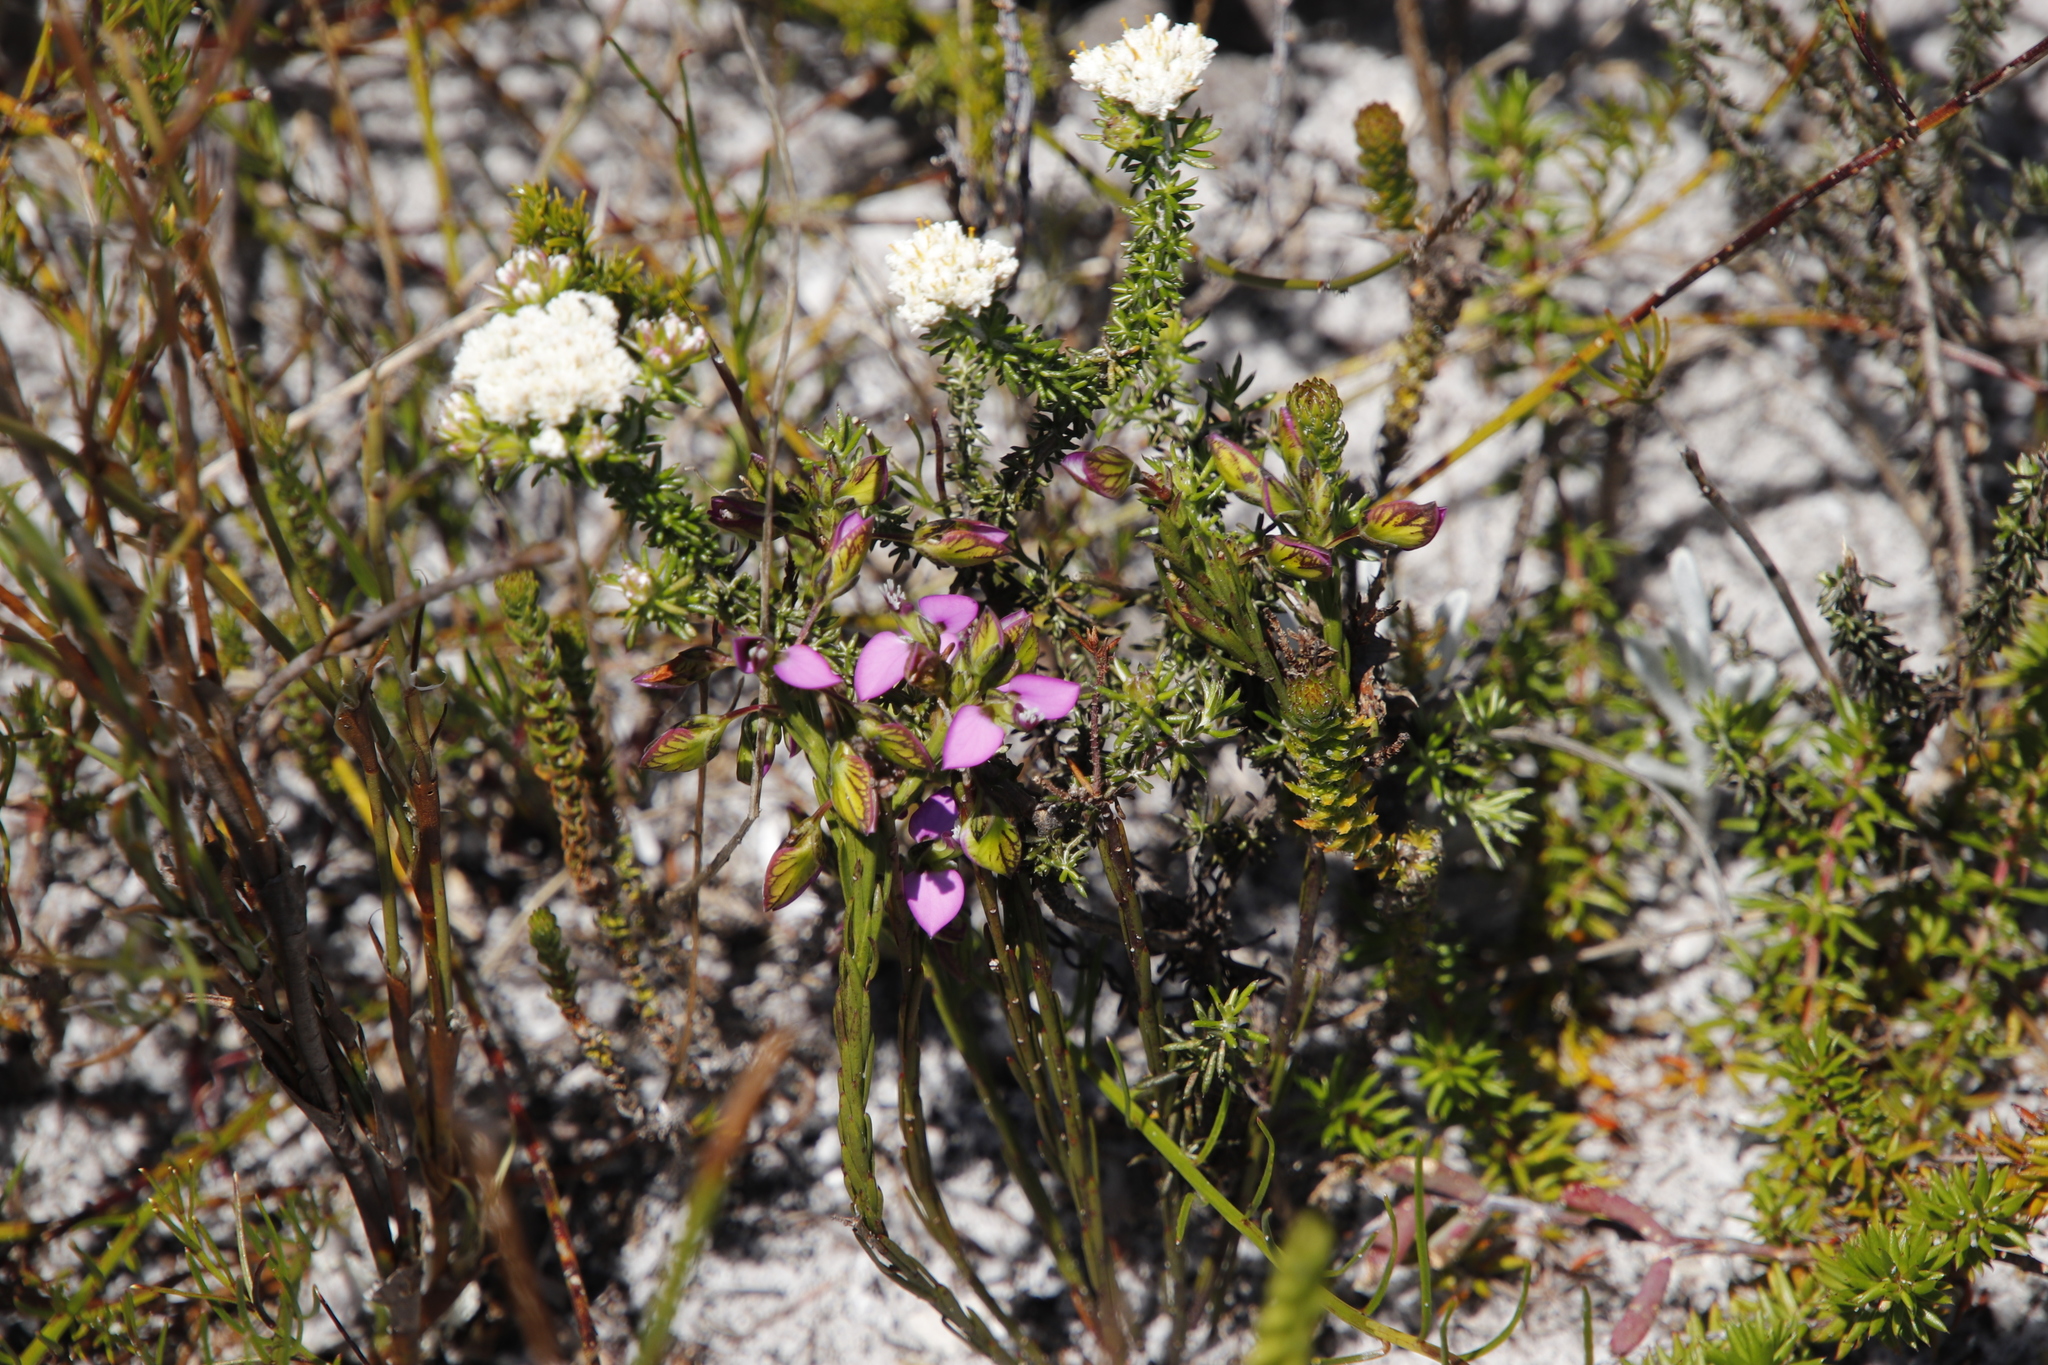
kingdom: Plantae
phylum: Tracheophyta
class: Magnoliopsida
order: Fabales
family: Polygalaceae
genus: Polygala
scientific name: Polygala recognita
